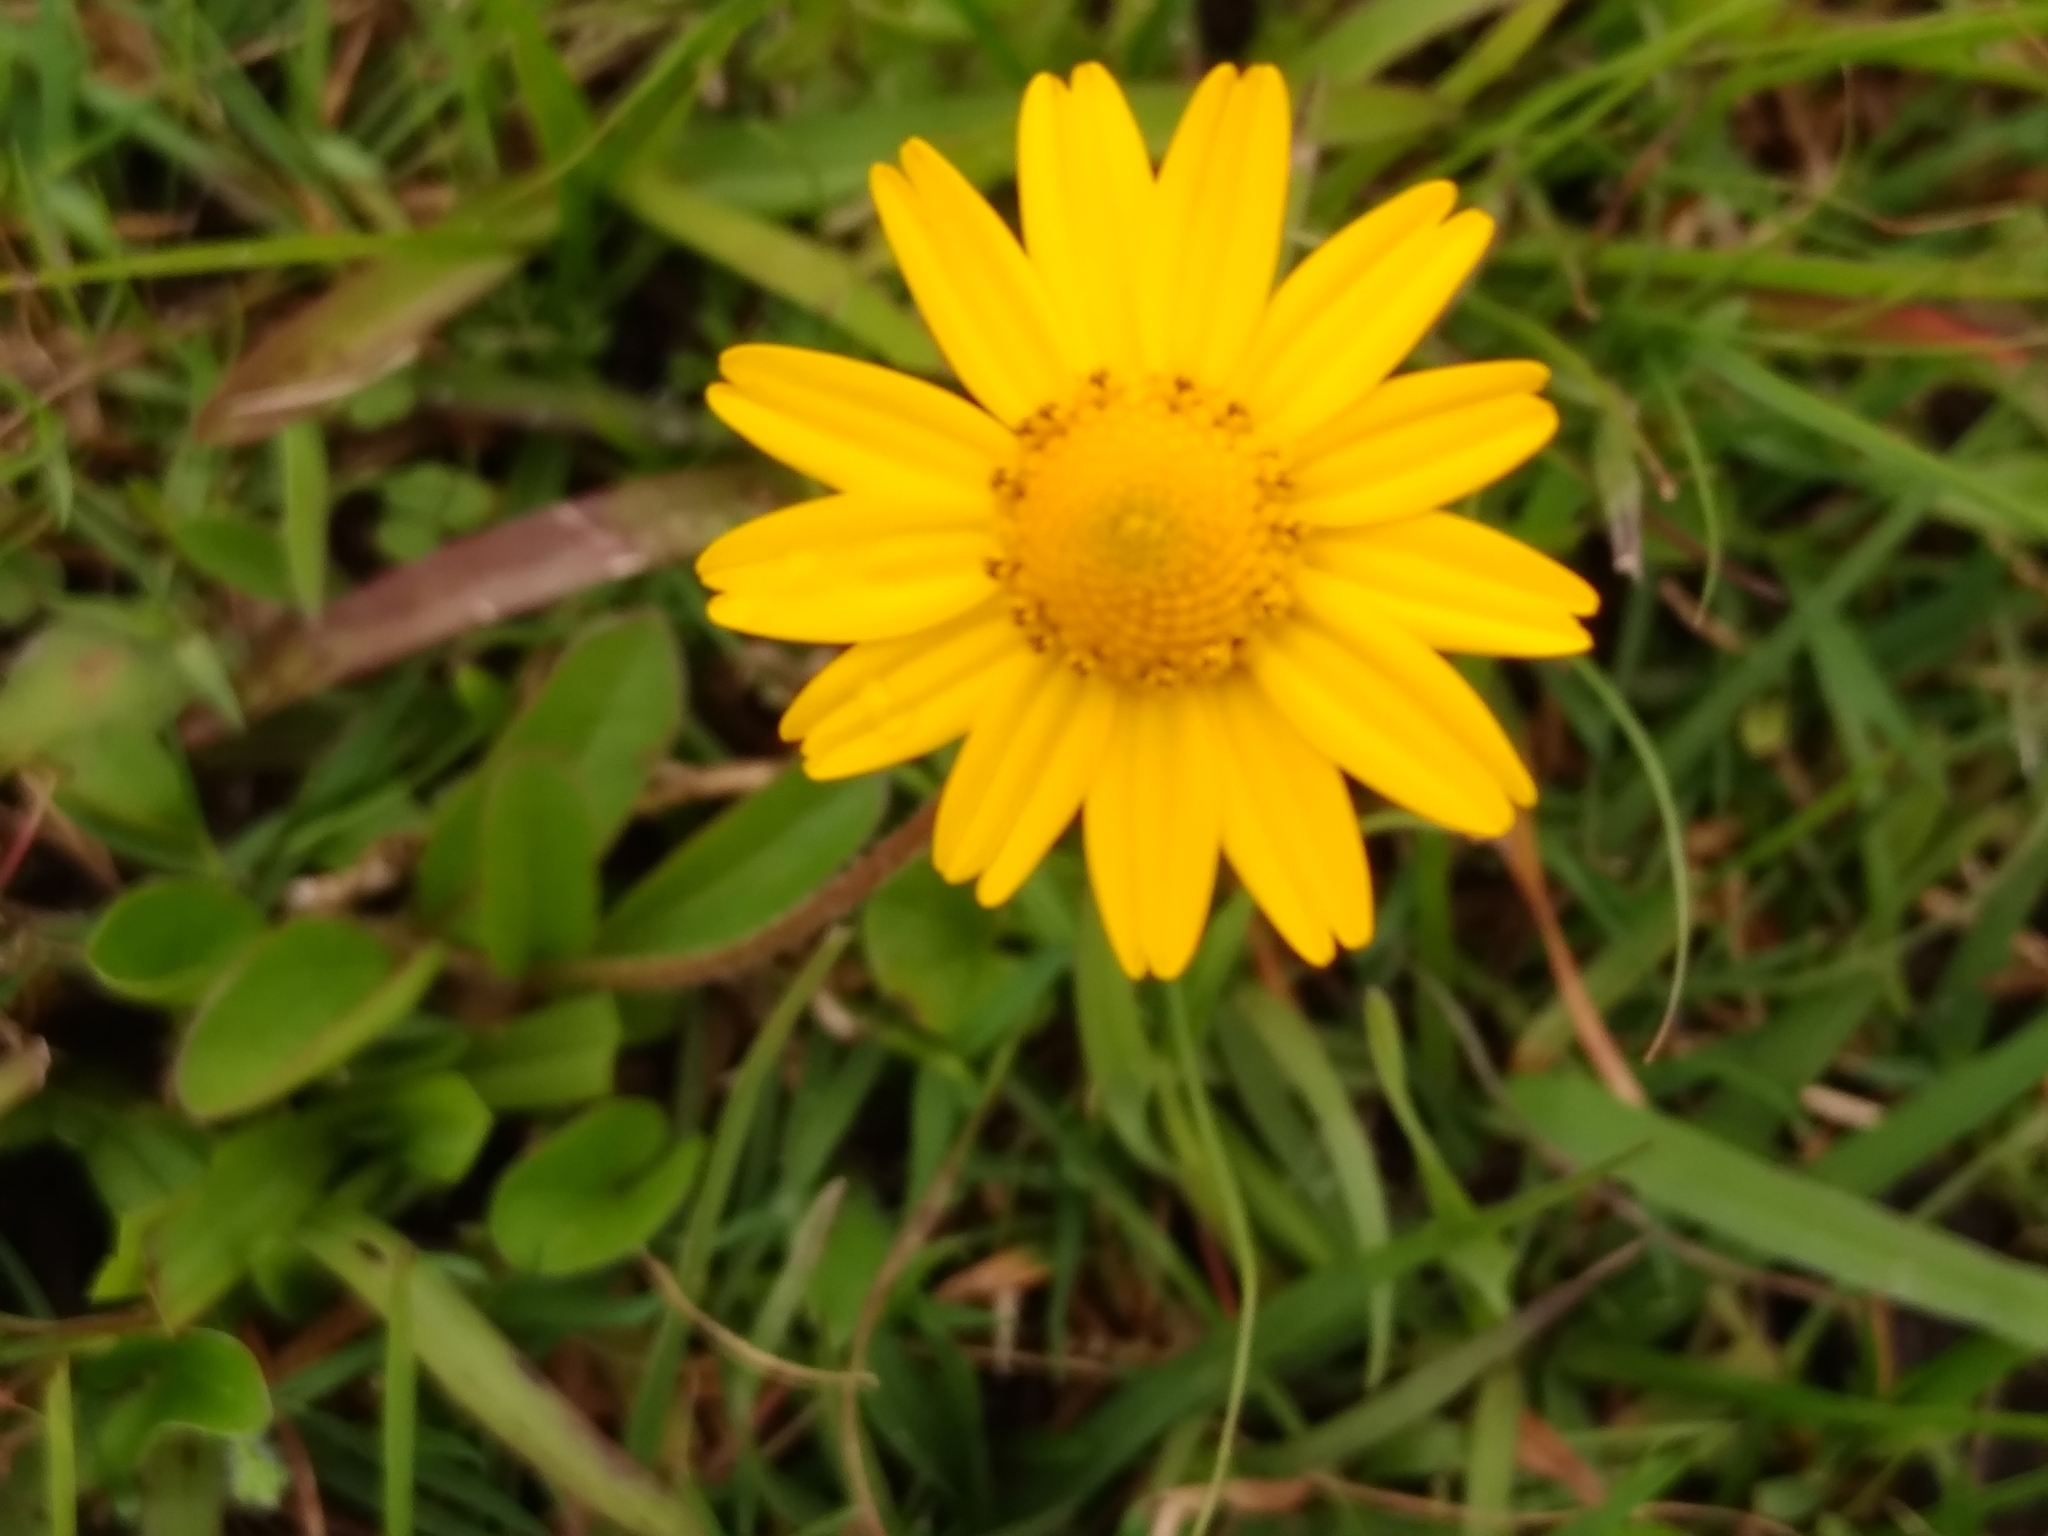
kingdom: Plantae
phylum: Tracheophyta
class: Magnoliopsida
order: Asterales
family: Asteraceae
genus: Acmella
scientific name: Acmella decumbens
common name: Creeping spotflower
